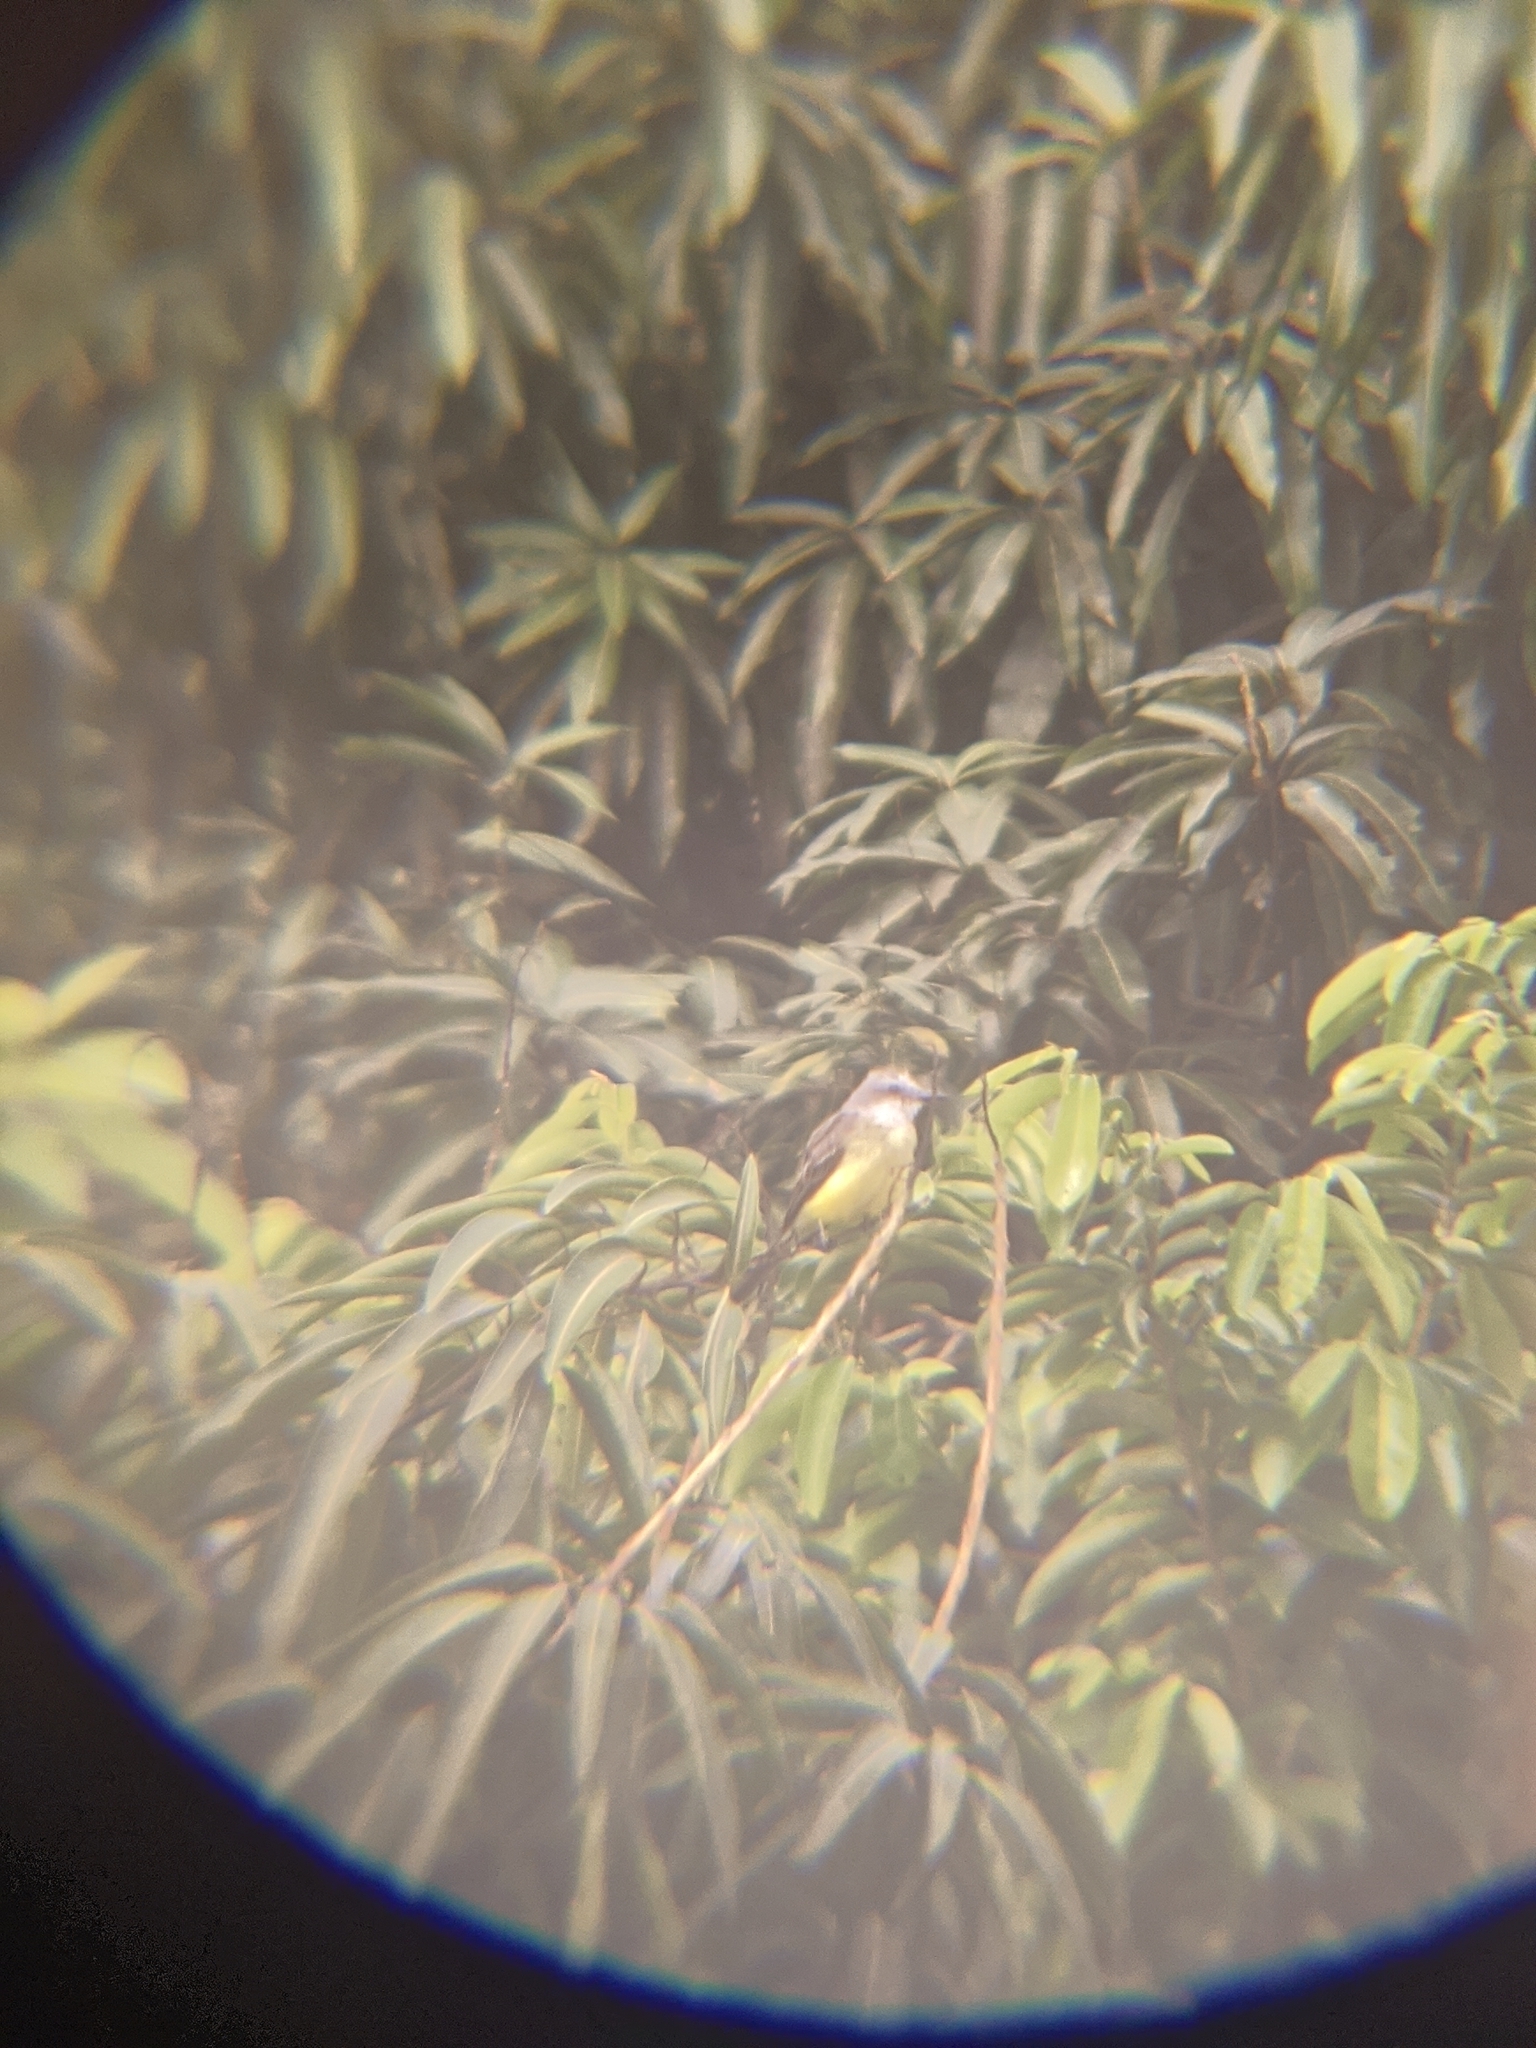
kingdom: Animalia
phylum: Chordata
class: Aves
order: Passeriformes
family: Tyrannidae
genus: Tyrannus
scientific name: Tyrannus melancholicus
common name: Tropical kingbird
